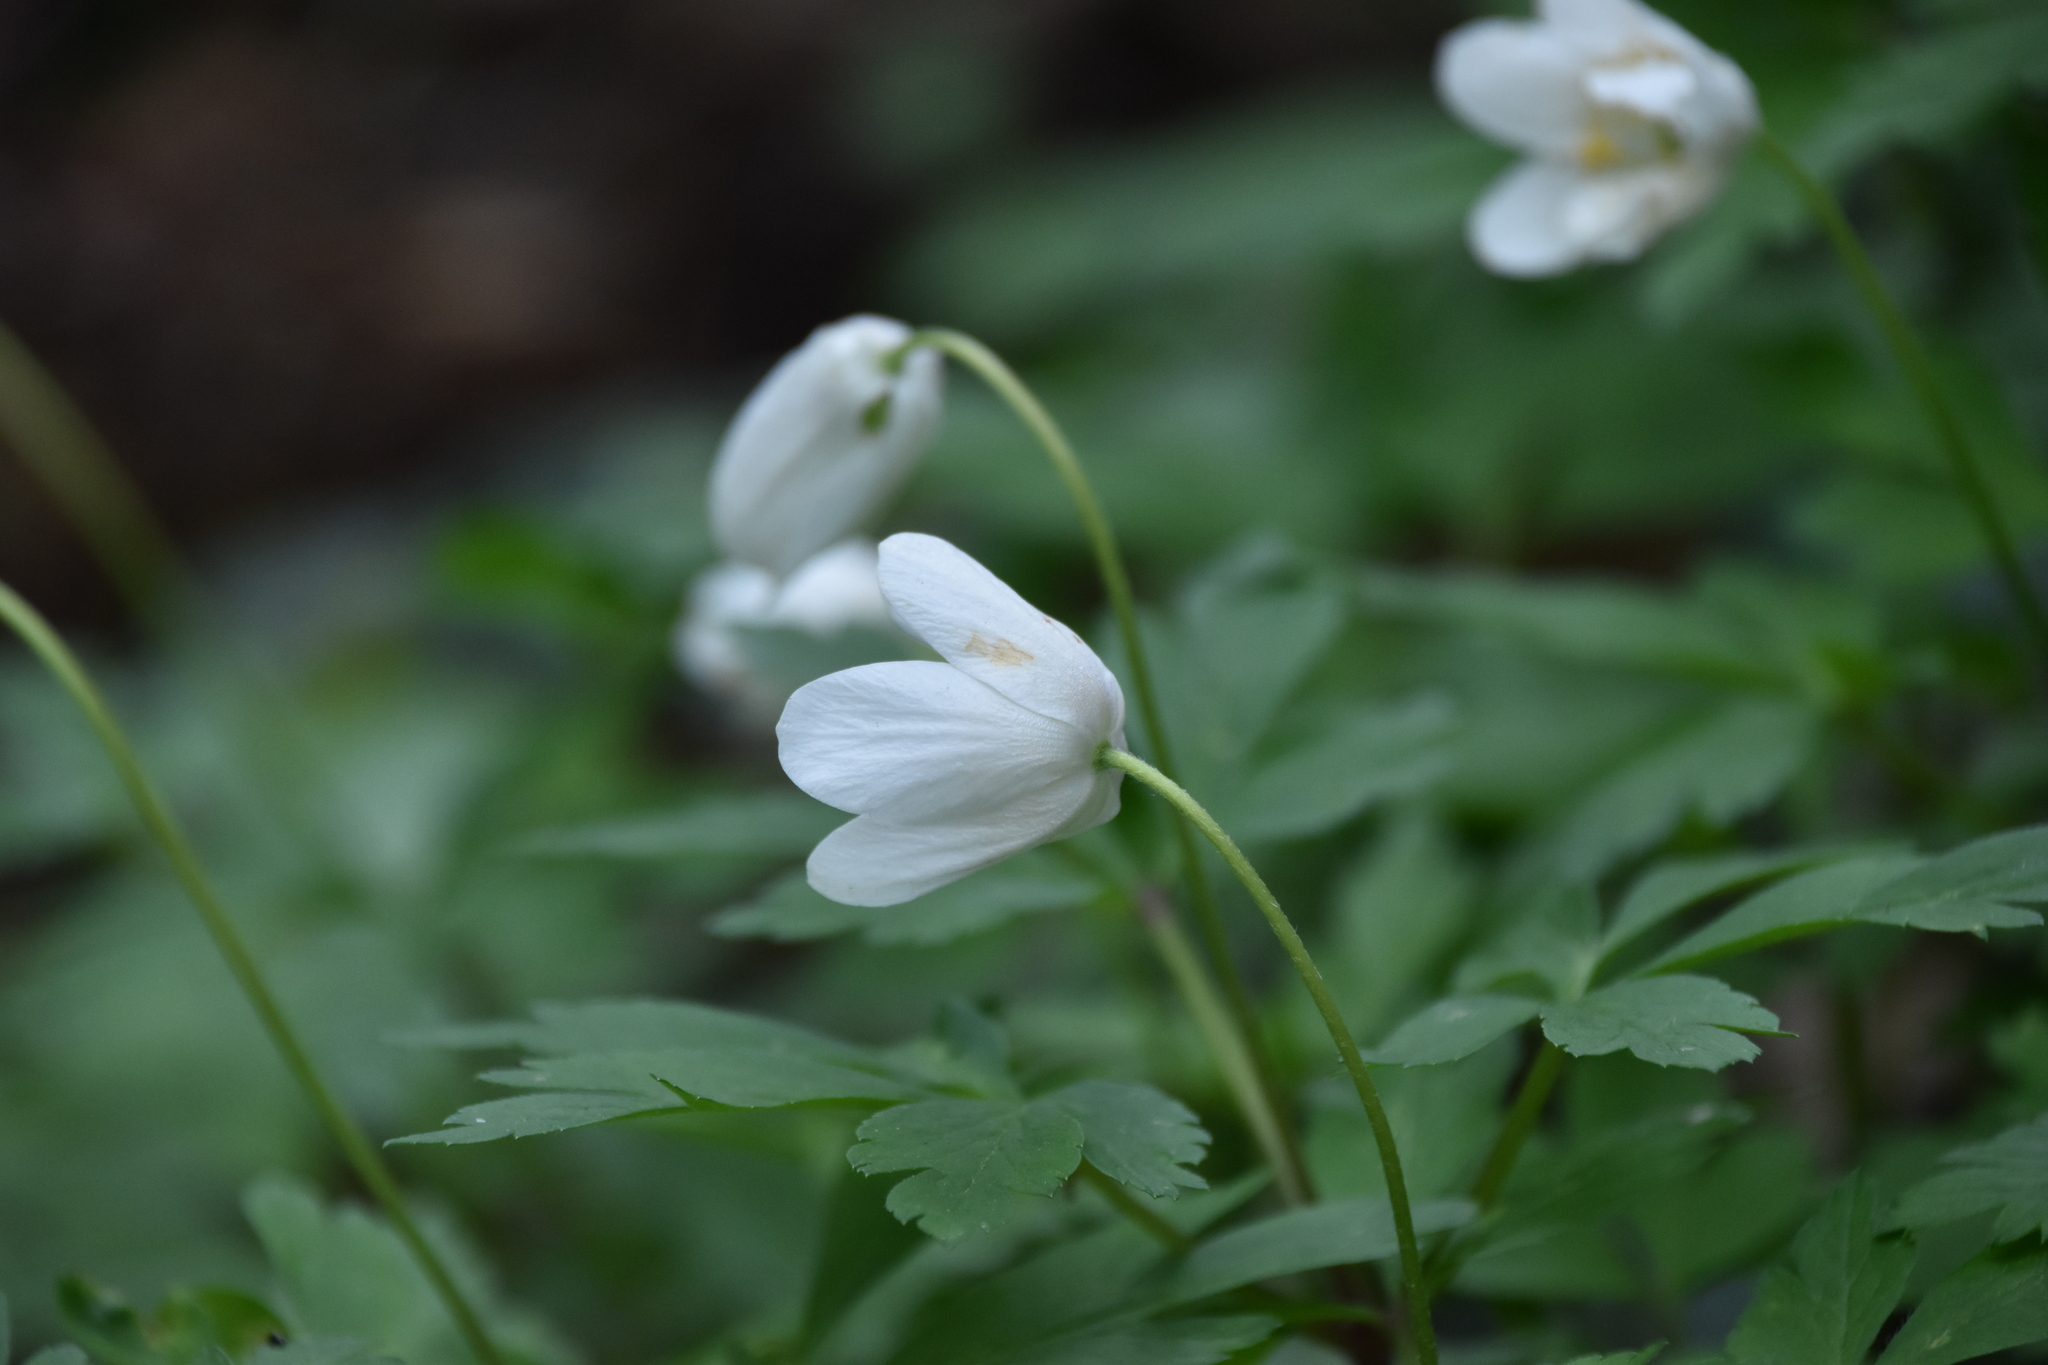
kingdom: Plantae
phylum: Tracheophyta
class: Magnoliopsida
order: Ranunculales
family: Ranunculaceae
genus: Anemone
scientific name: Anemone nemorosa
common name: Wood anemone
